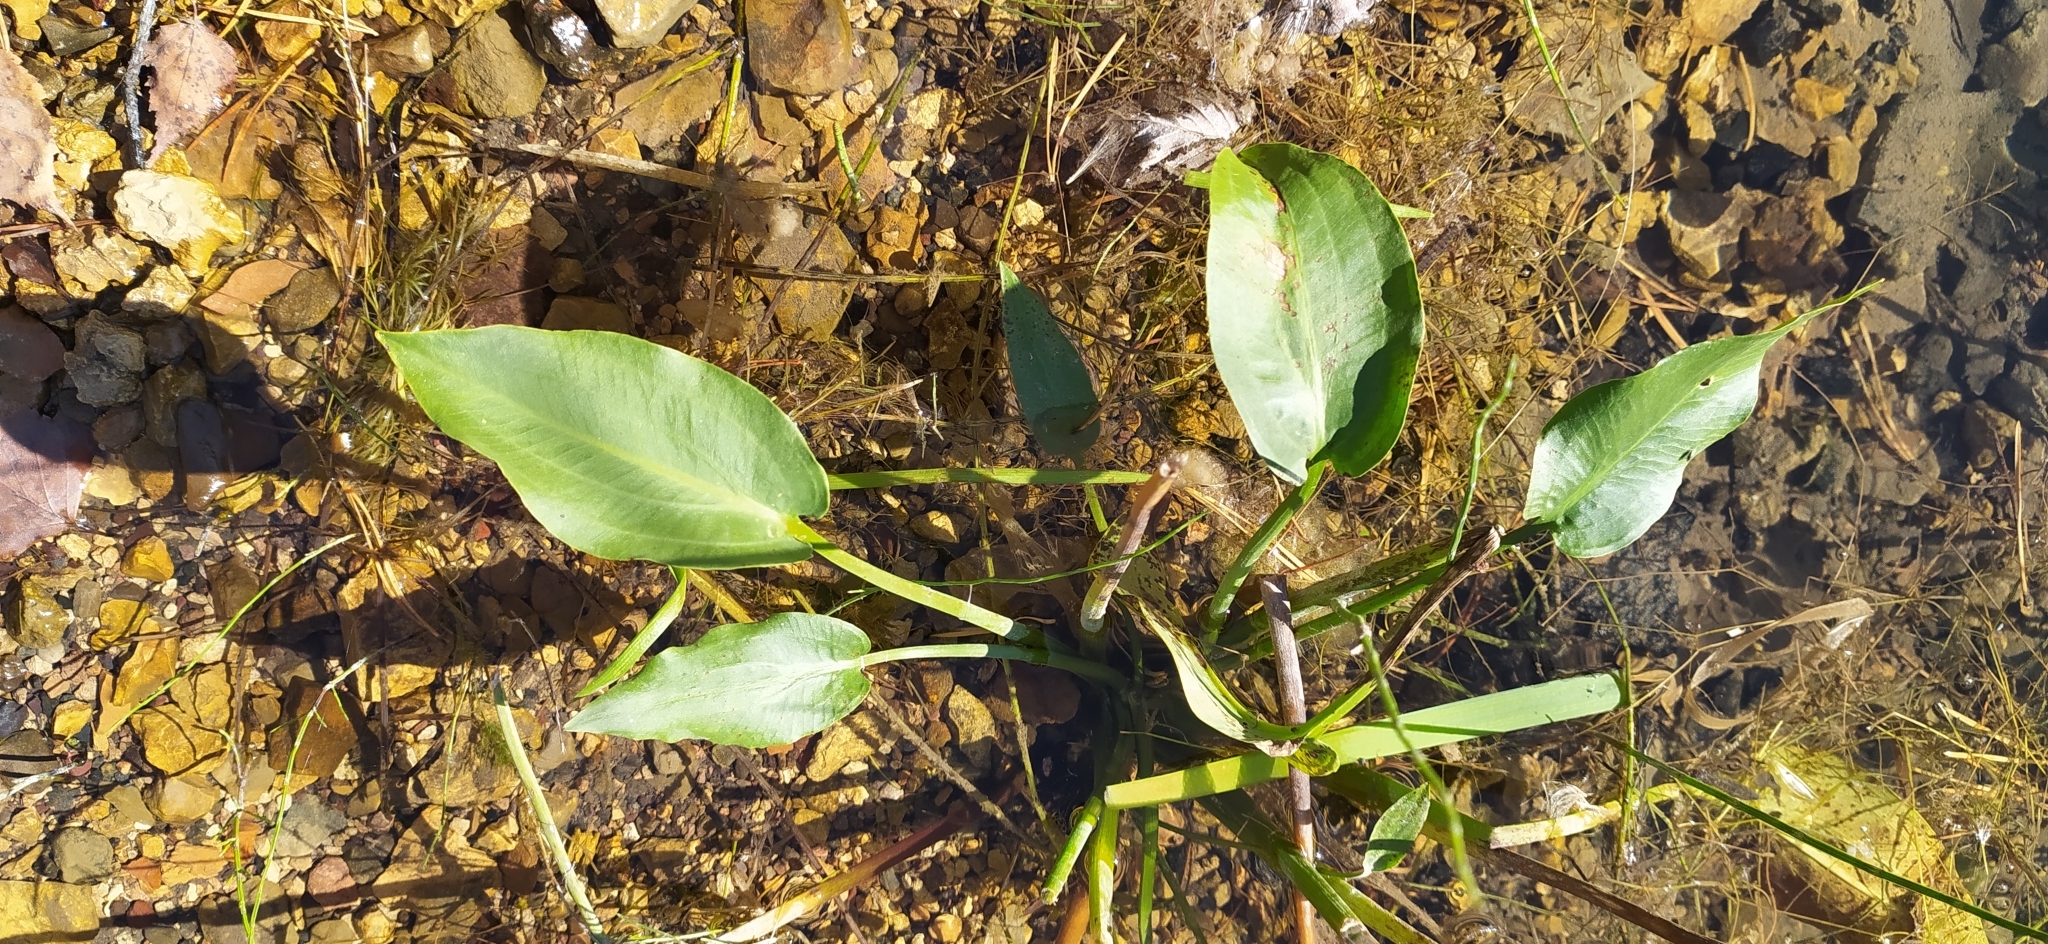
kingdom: Plantae
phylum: Tracheophyta
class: Liliopsida
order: Alismatales
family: Alismataceae
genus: Alisma
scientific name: Alisma plantago-aquatica
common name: Water-plantain
